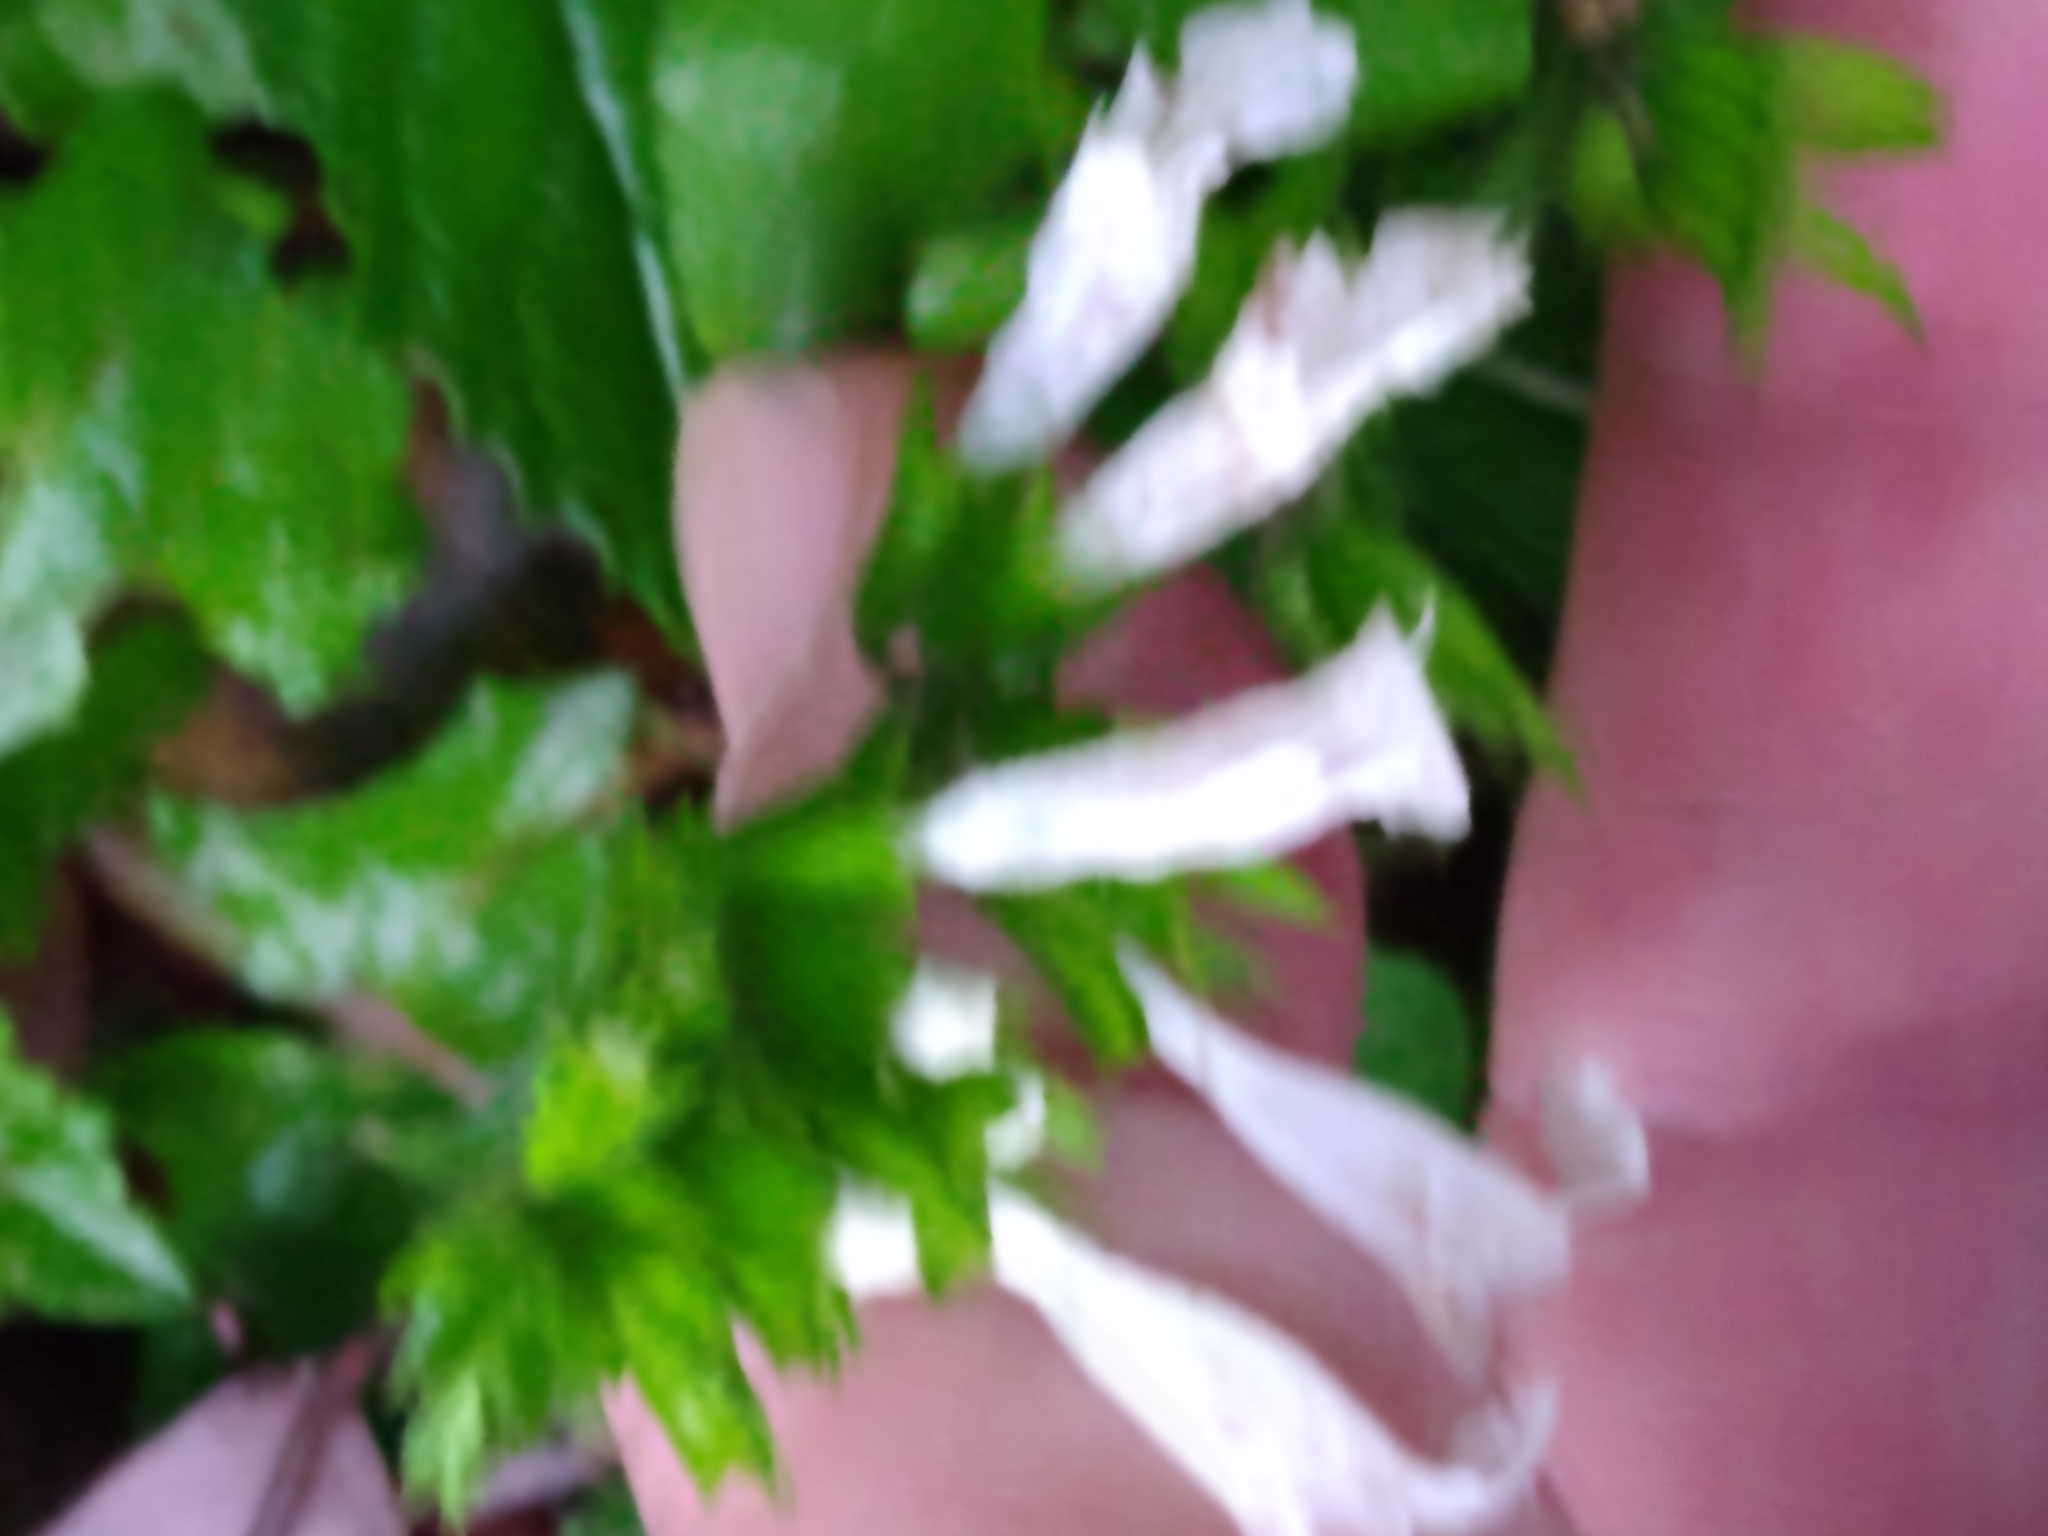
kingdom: Plantae
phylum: Tracheophyta
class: Magnoliopsida
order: Lamiales
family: Lamiaceae
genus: Salvia
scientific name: Salvia lyrata
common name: Cancerweed
